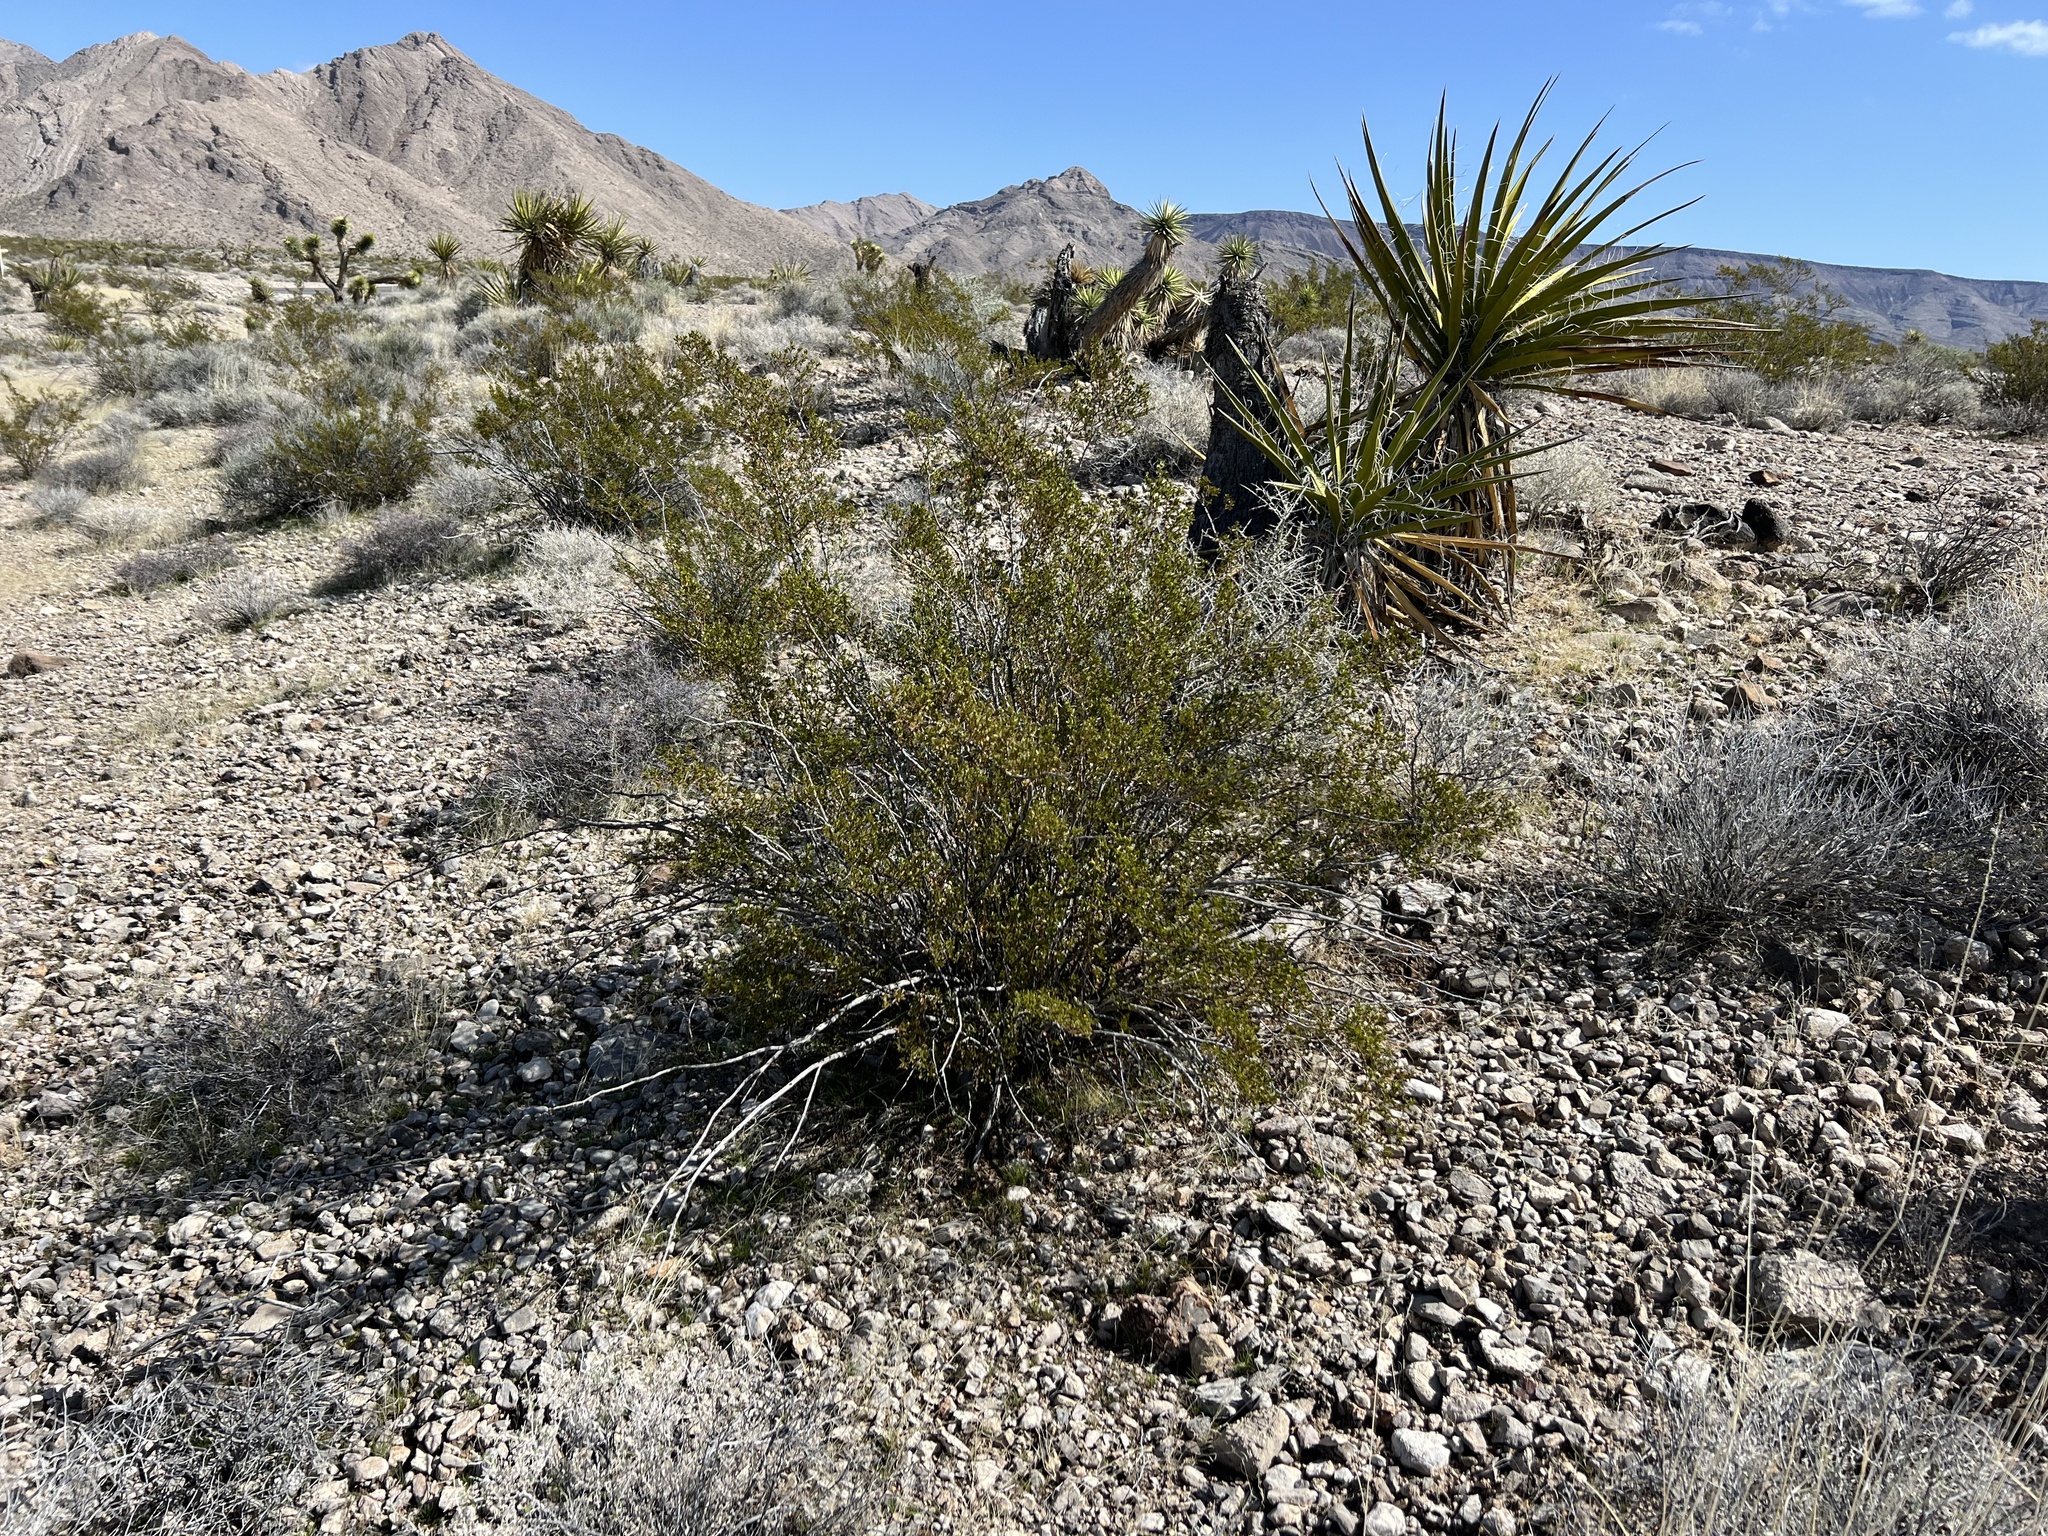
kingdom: Plantae
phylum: Tracheophyta
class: Magnoliopsida
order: Zygophyllales
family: Zygophyllaceae
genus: Larrea
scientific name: Larrea tridentata
